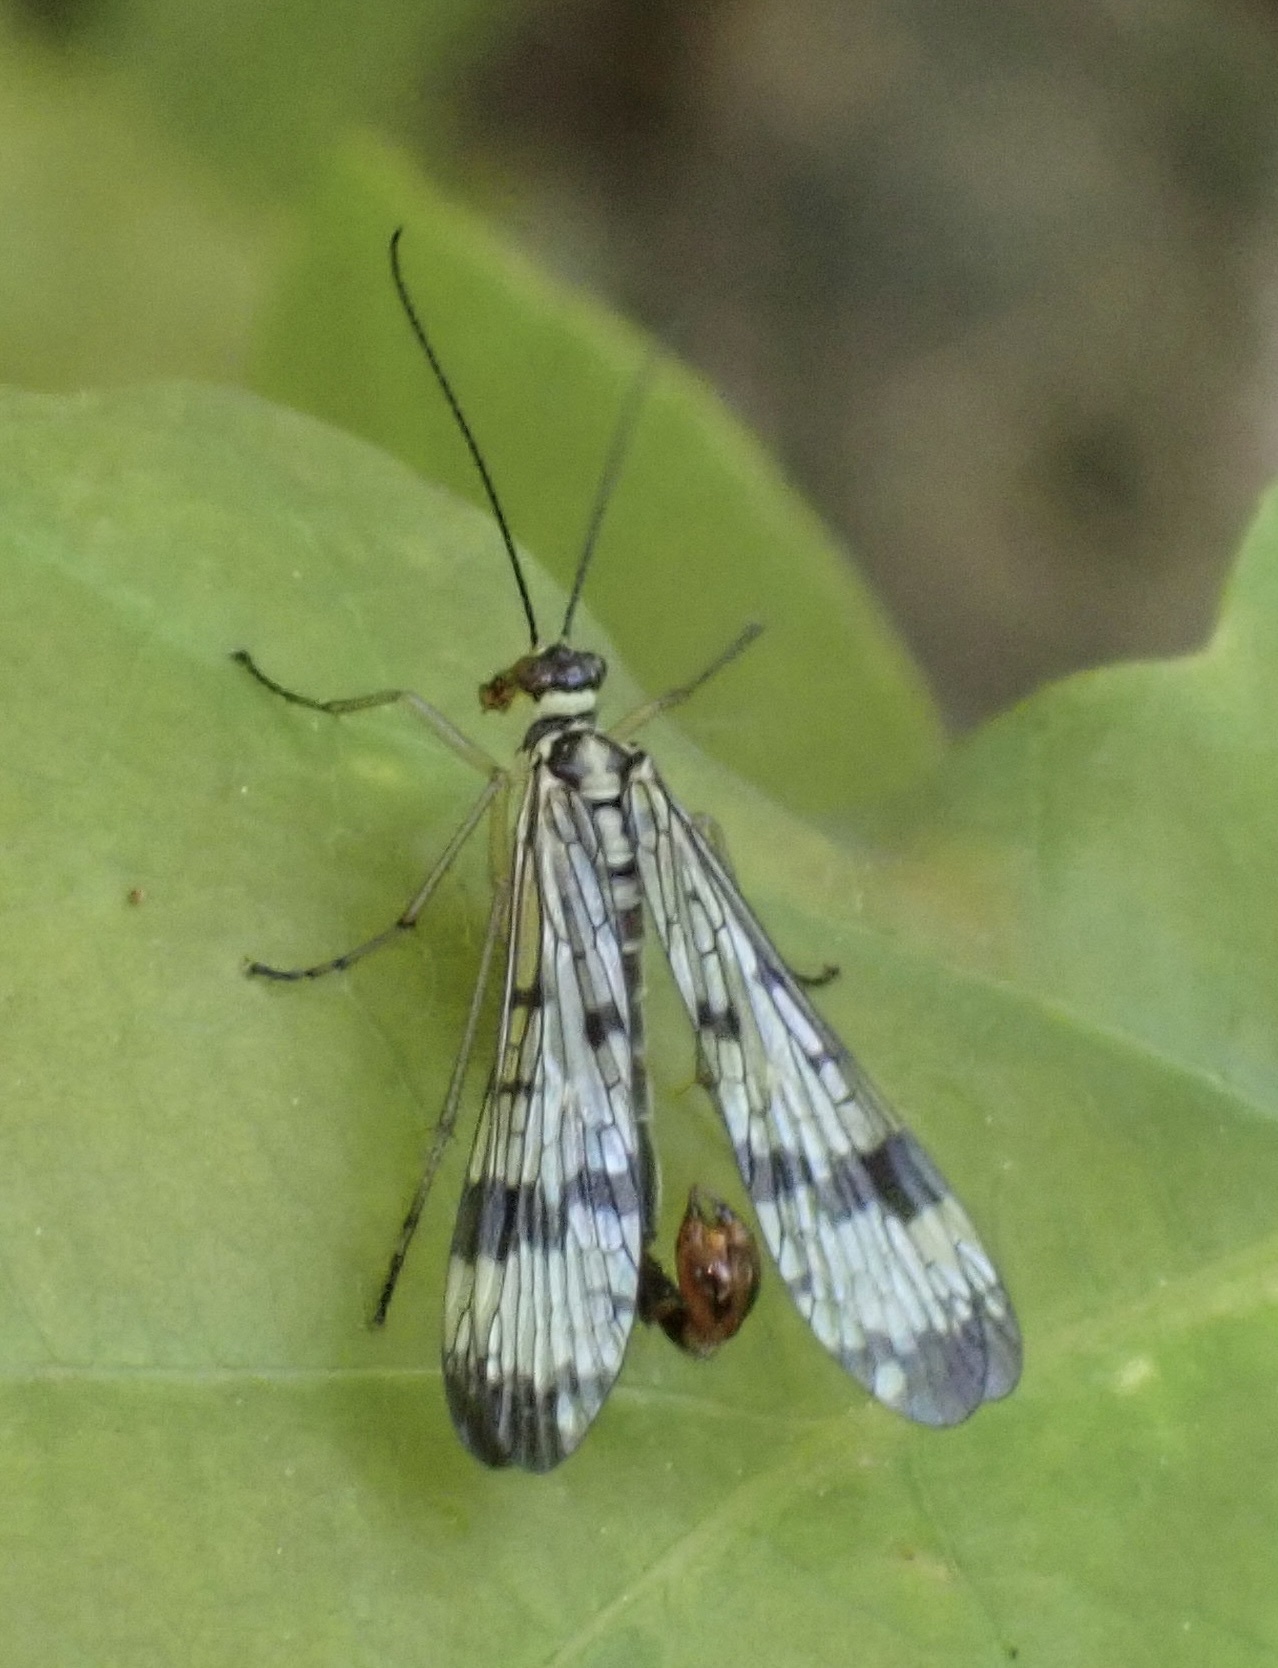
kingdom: Animalia
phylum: Arthropoda
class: Insecta
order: Mecoptera
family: Panorpidae
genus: Panorpa
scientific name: Panorpa communis
